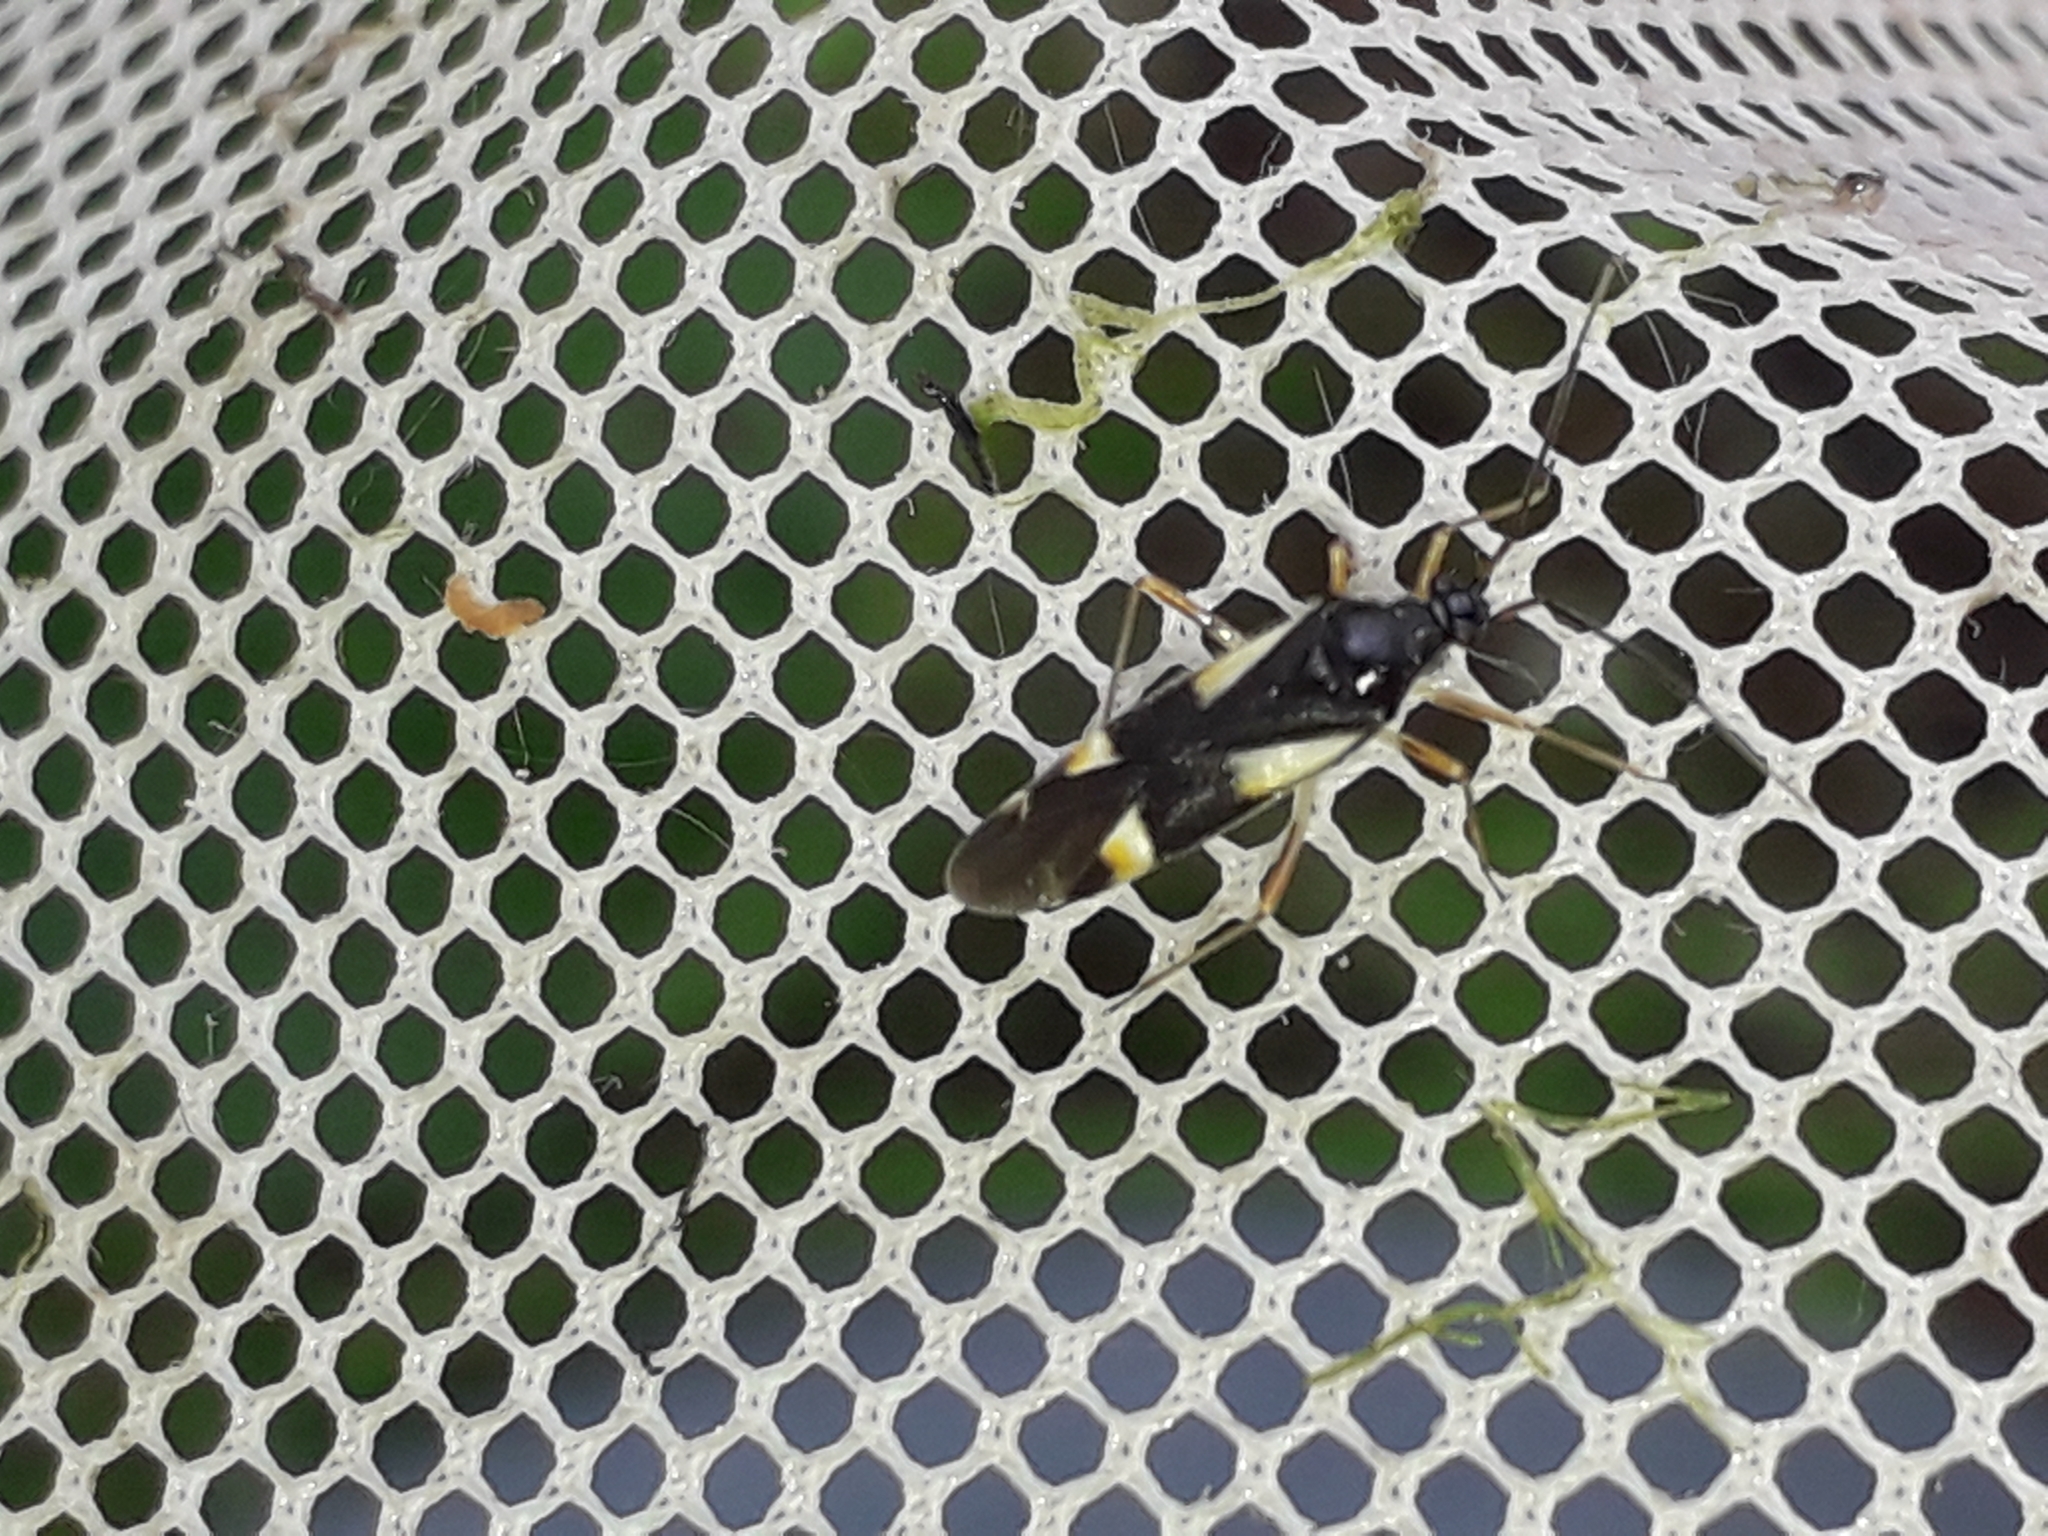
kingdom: Animalia
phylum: Arthropoda
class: Insecta
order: Hemiptera
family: Miridae
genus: Dryophilocoris
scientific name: Dryophilocoris flavoquadrimaculatus
